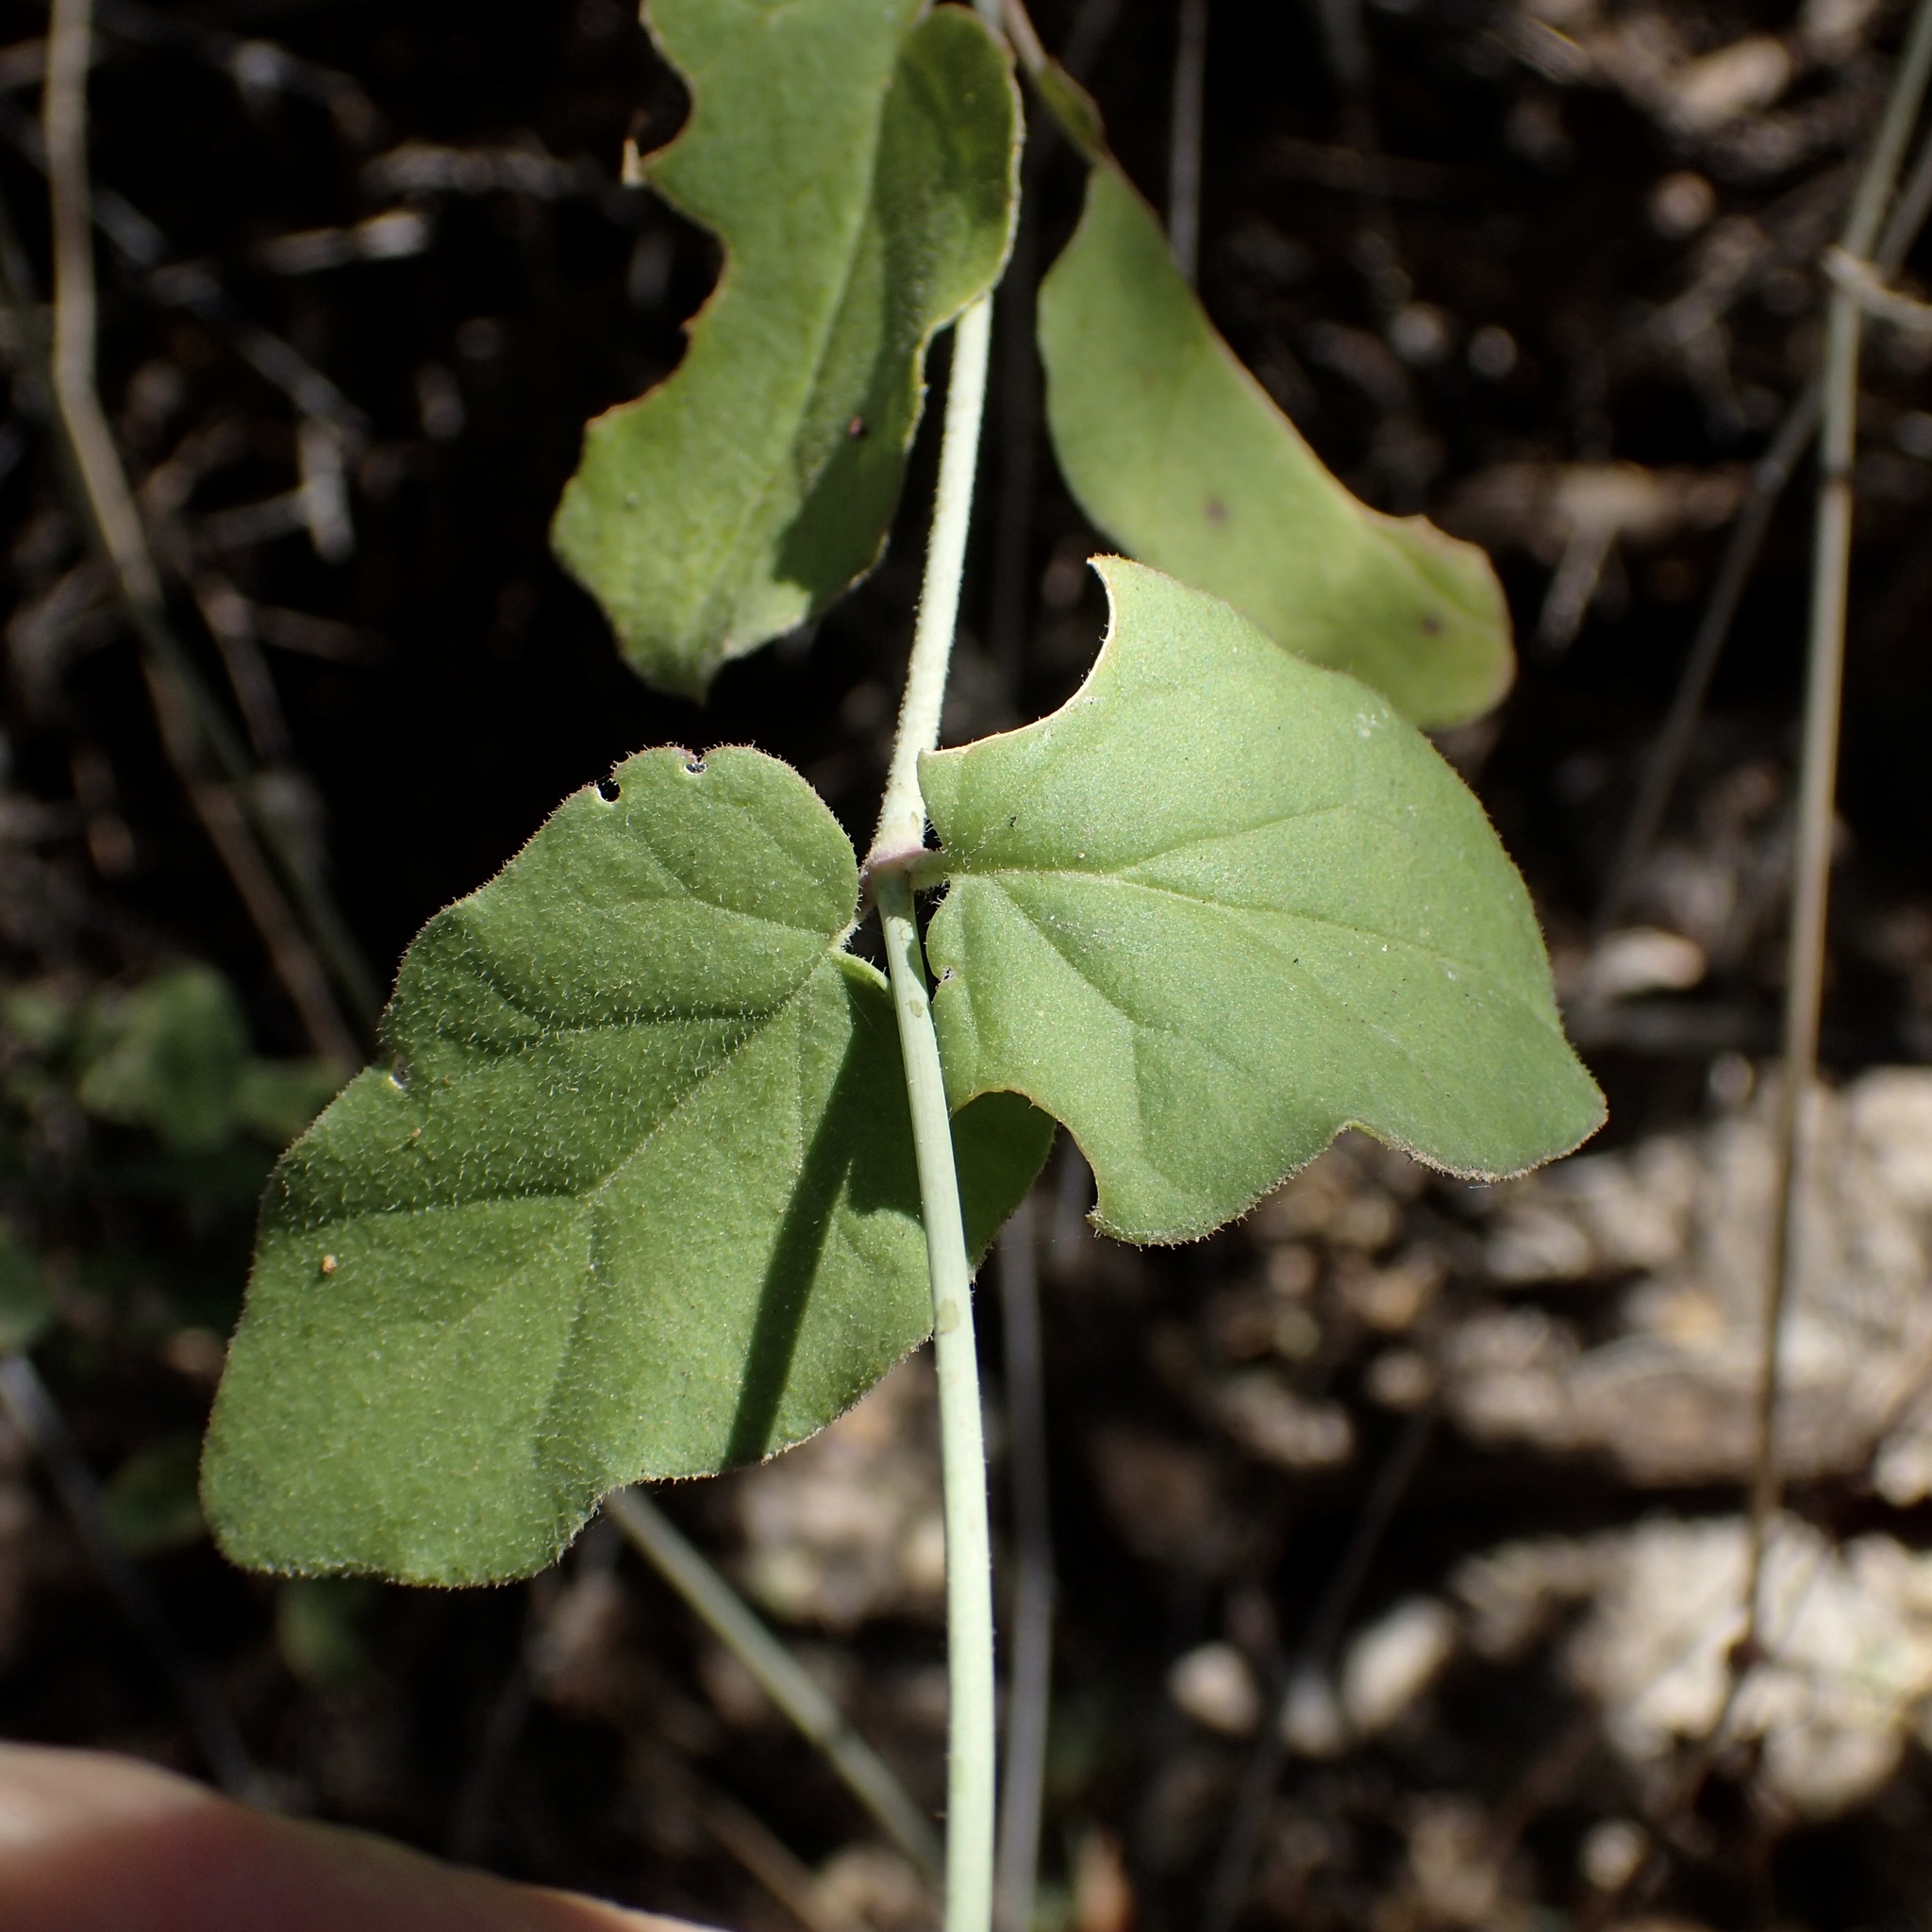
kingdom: Plantae
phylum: Tracheophyta
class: Magnoliopsida
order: Caryophyllales
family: Nyctaginaceae
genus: Commicarpus
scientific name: Commicarpus brandegeei
